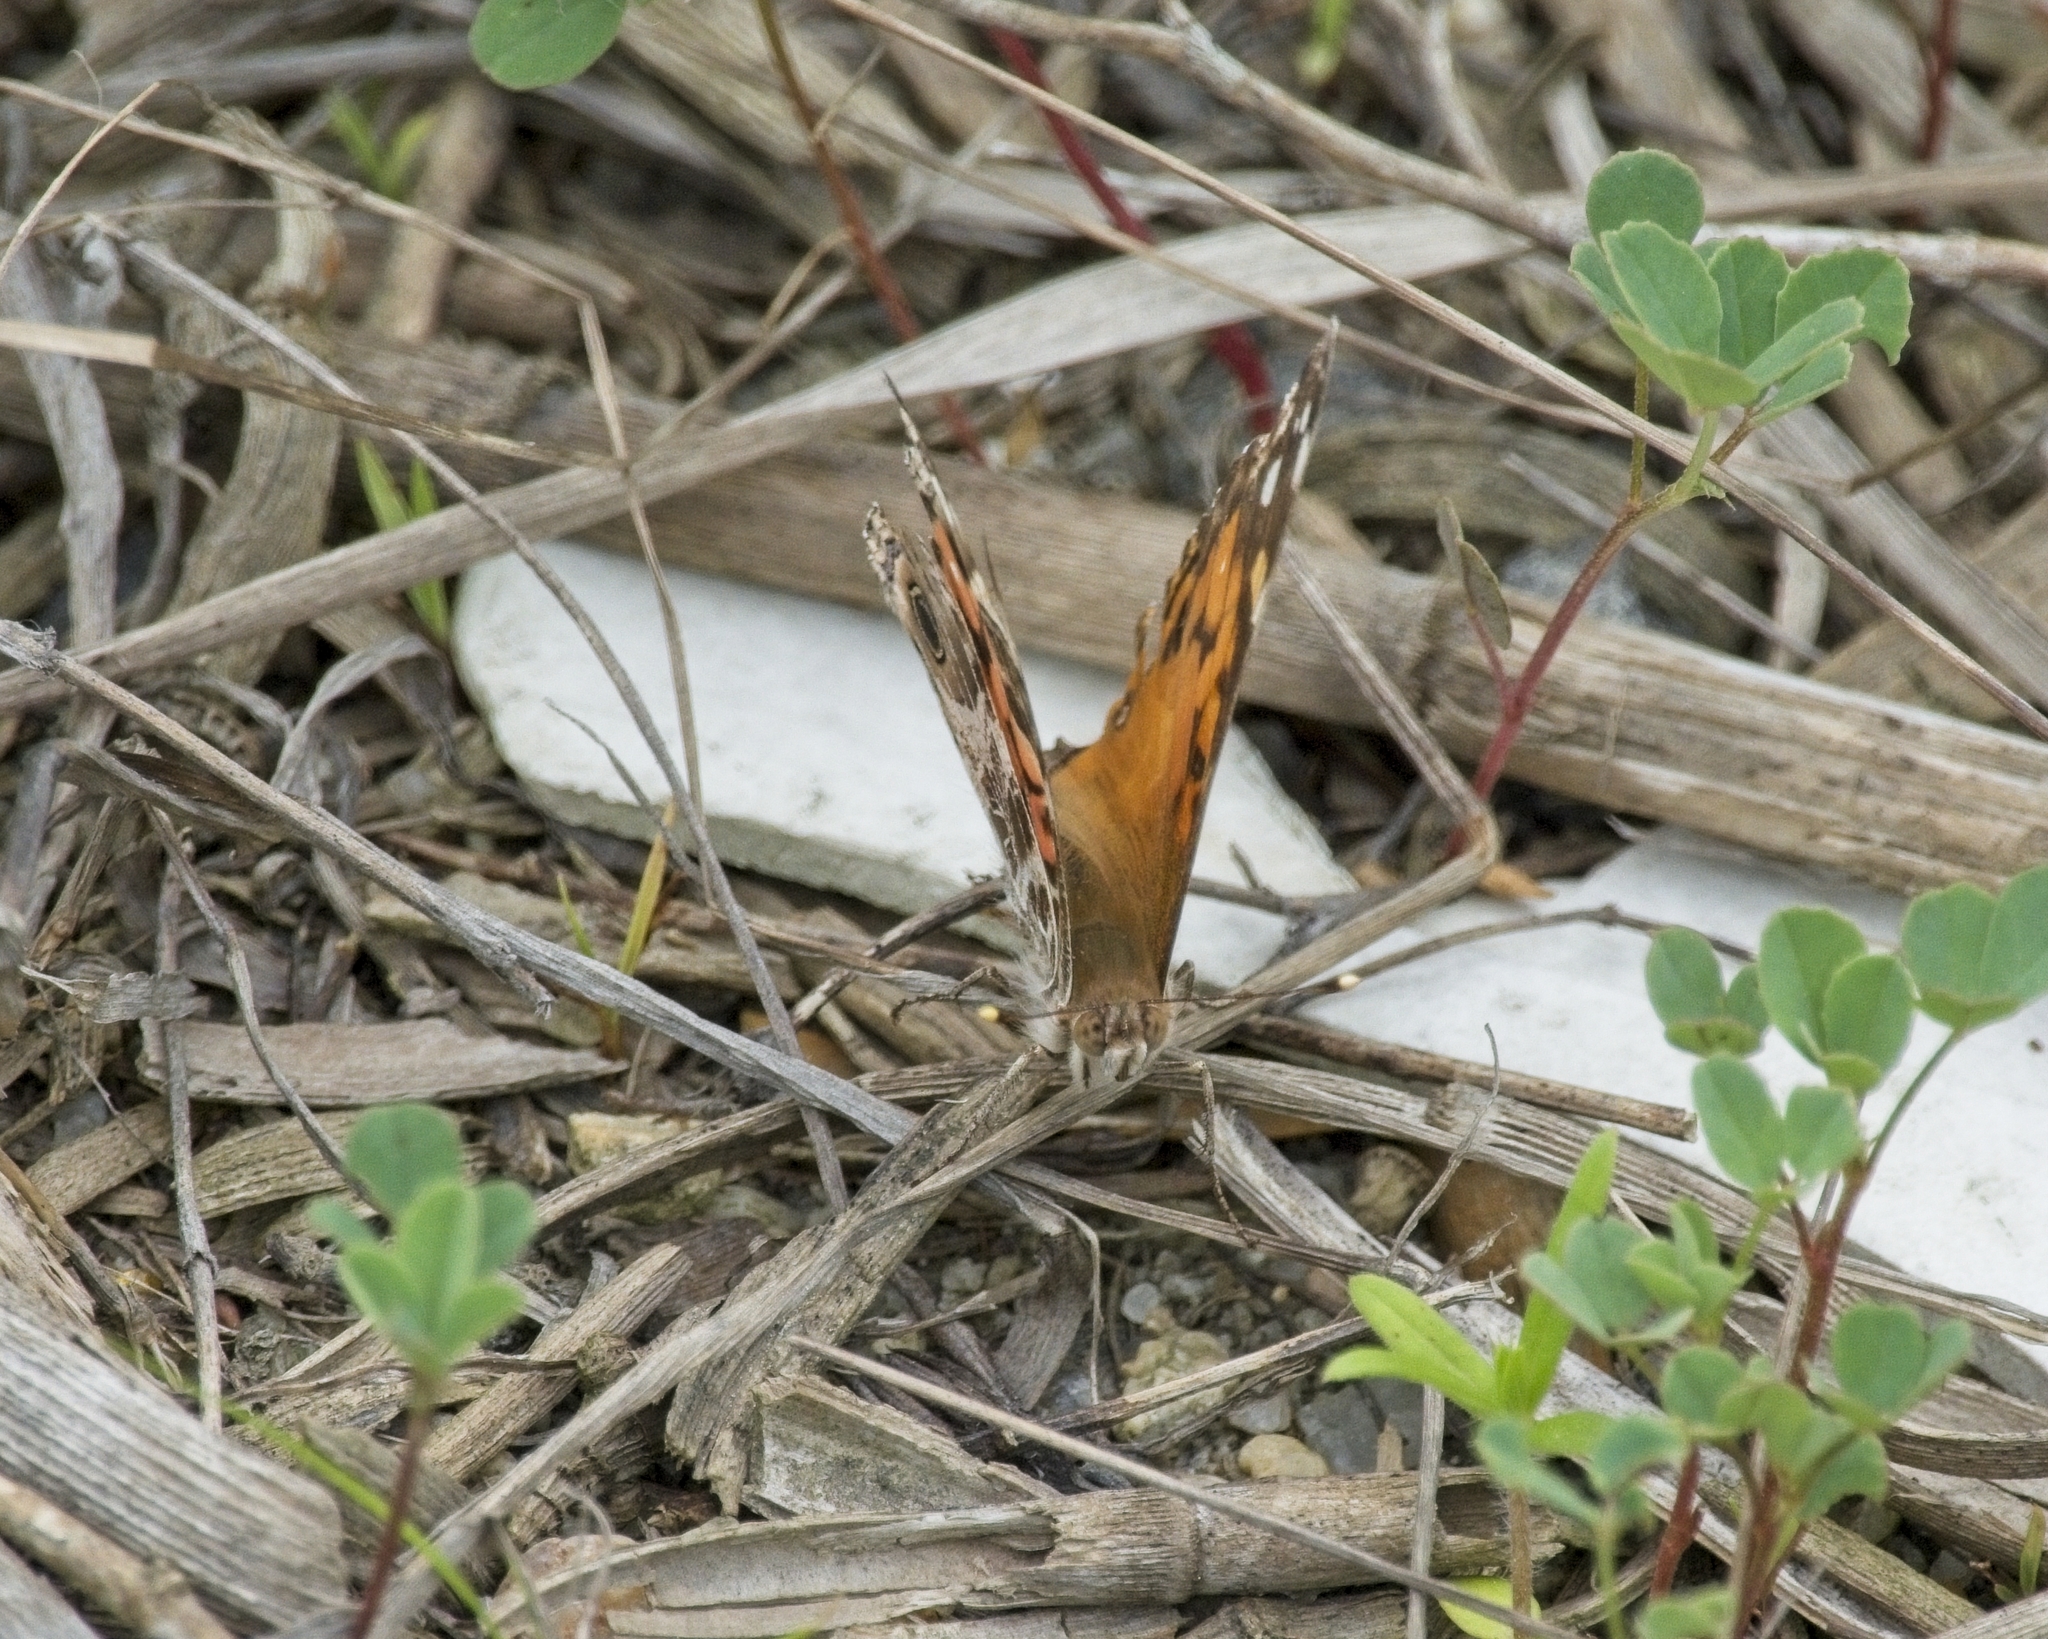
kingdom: Animalia
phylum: Arthropoda
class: Insecta
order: Lepidoptera
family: Nymphalidae
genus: Vanessa
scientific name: Vanessa virginiensis
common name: American lady
